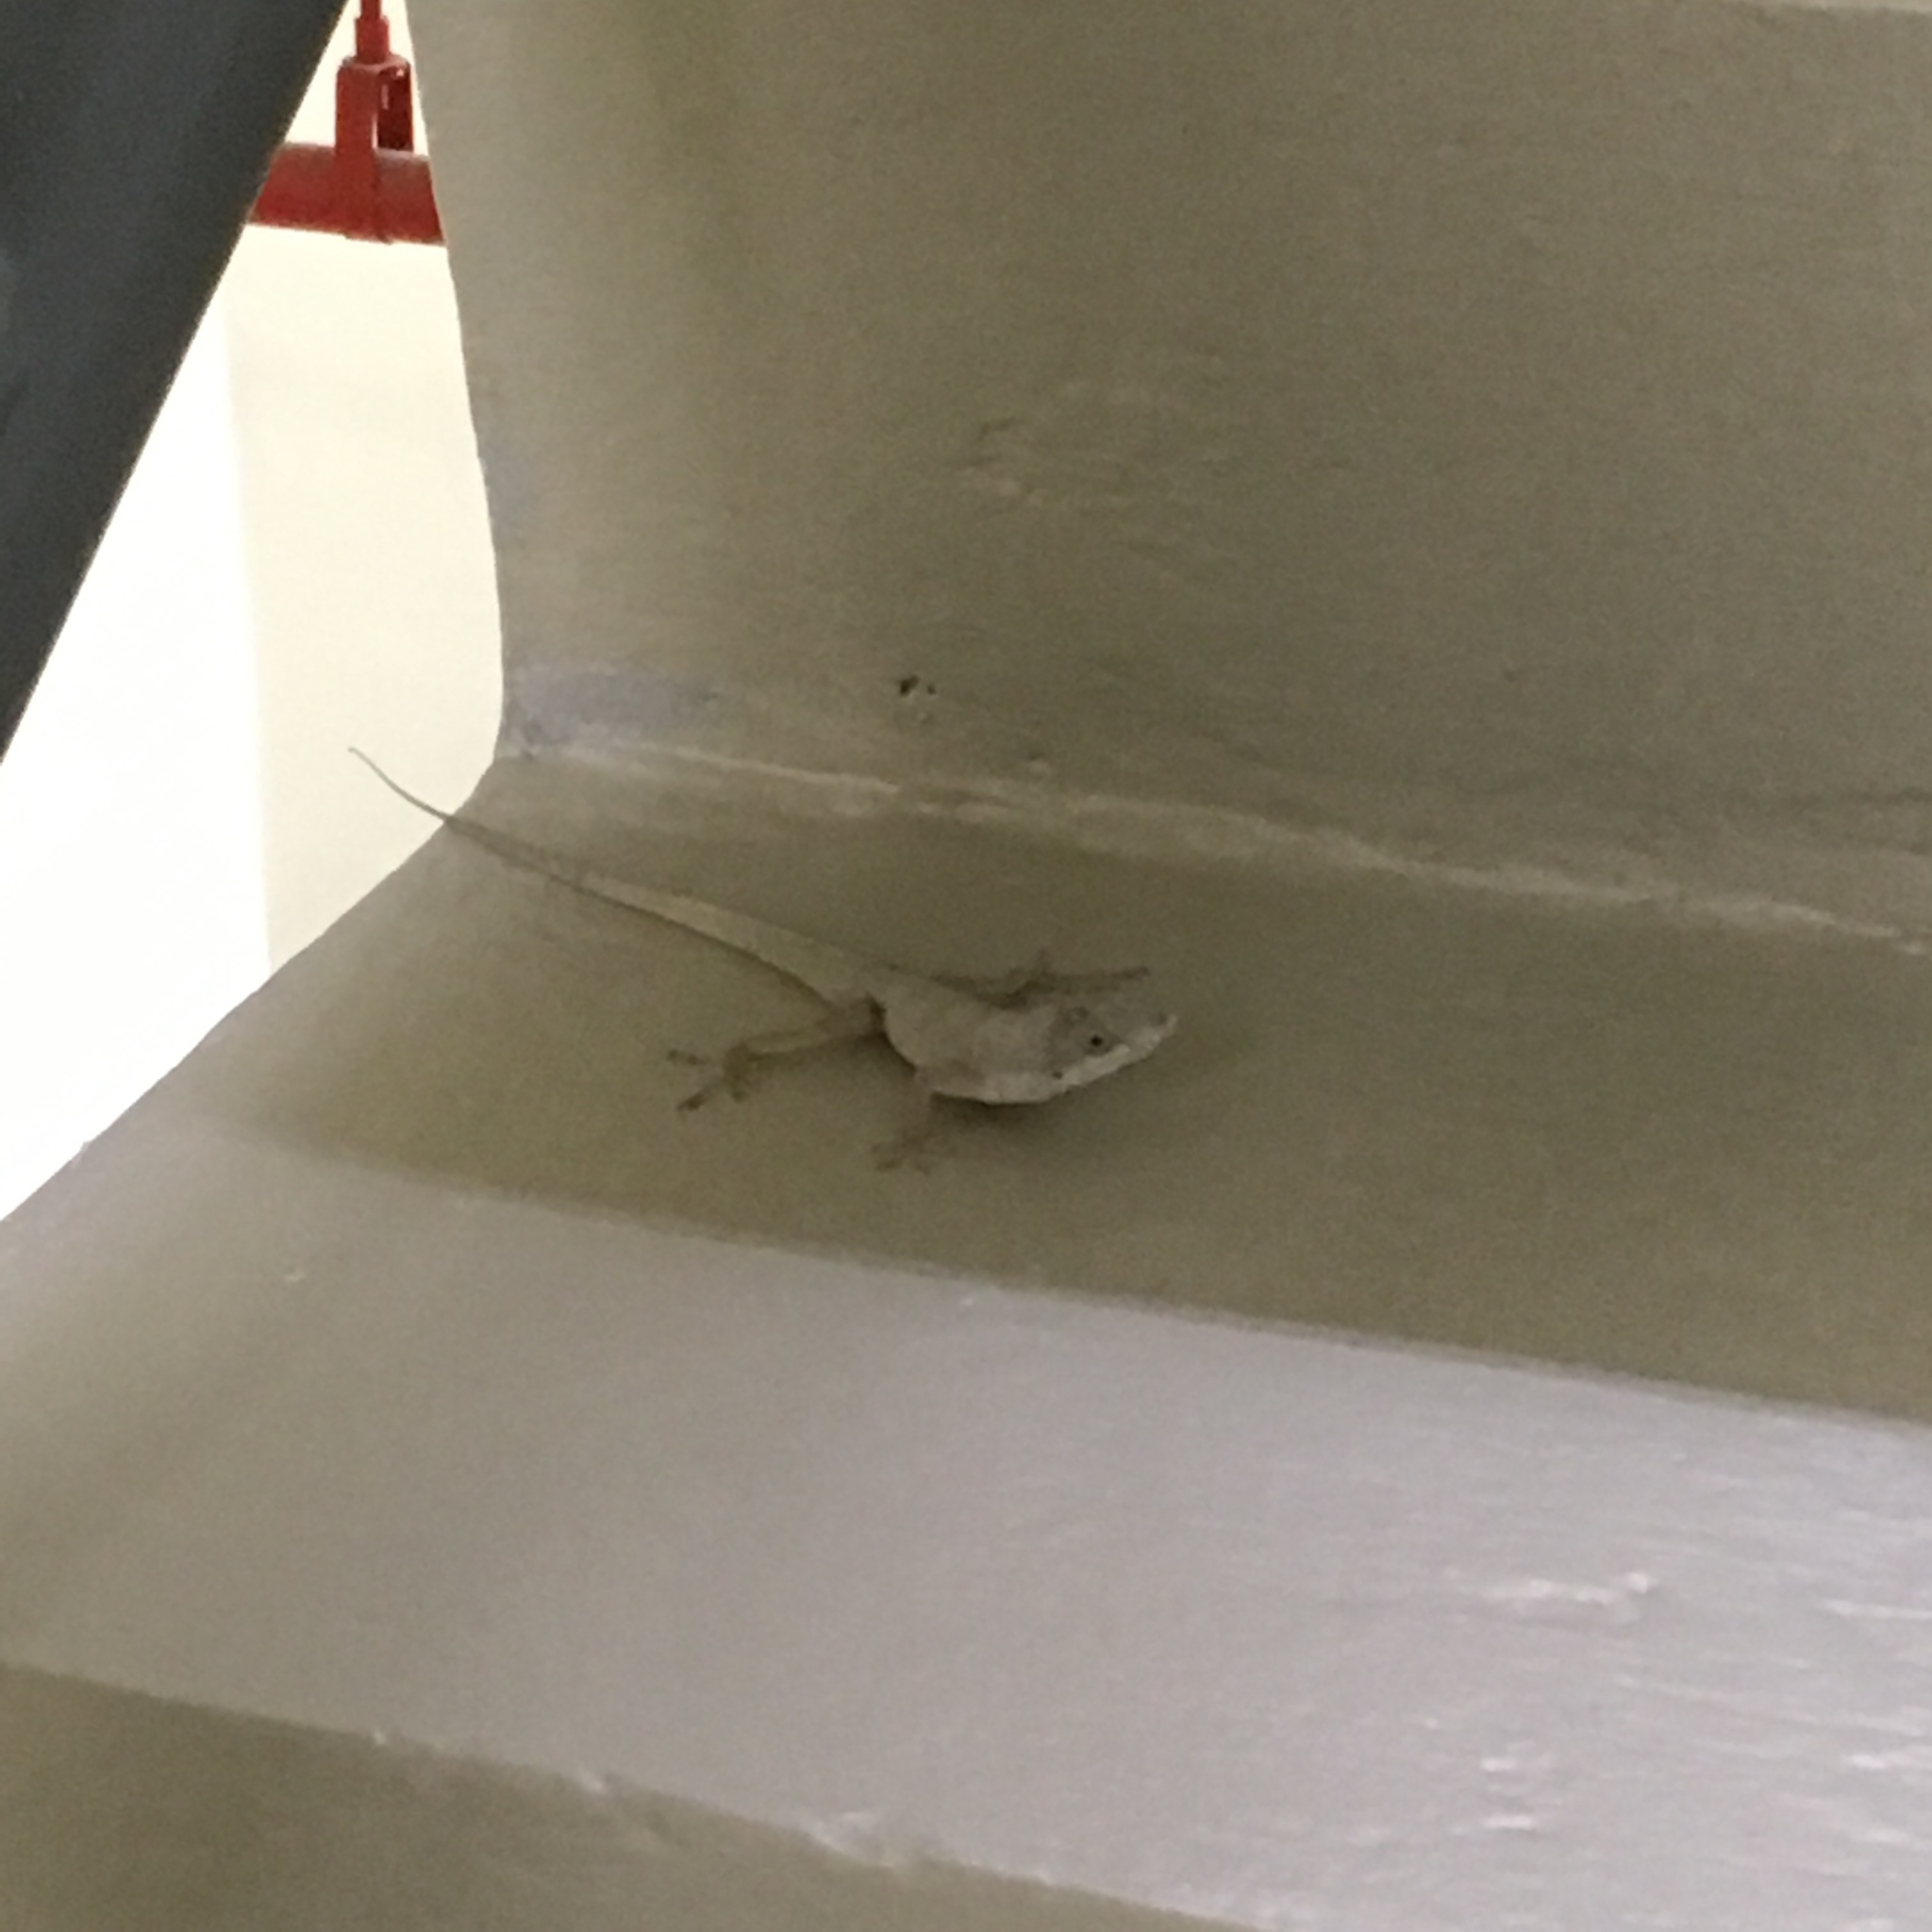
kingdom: Animalia
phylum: Chordata
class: Squamata
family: Dactyloidae
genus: Anolis
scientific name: Anolis aeneus
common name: Bronze anole
